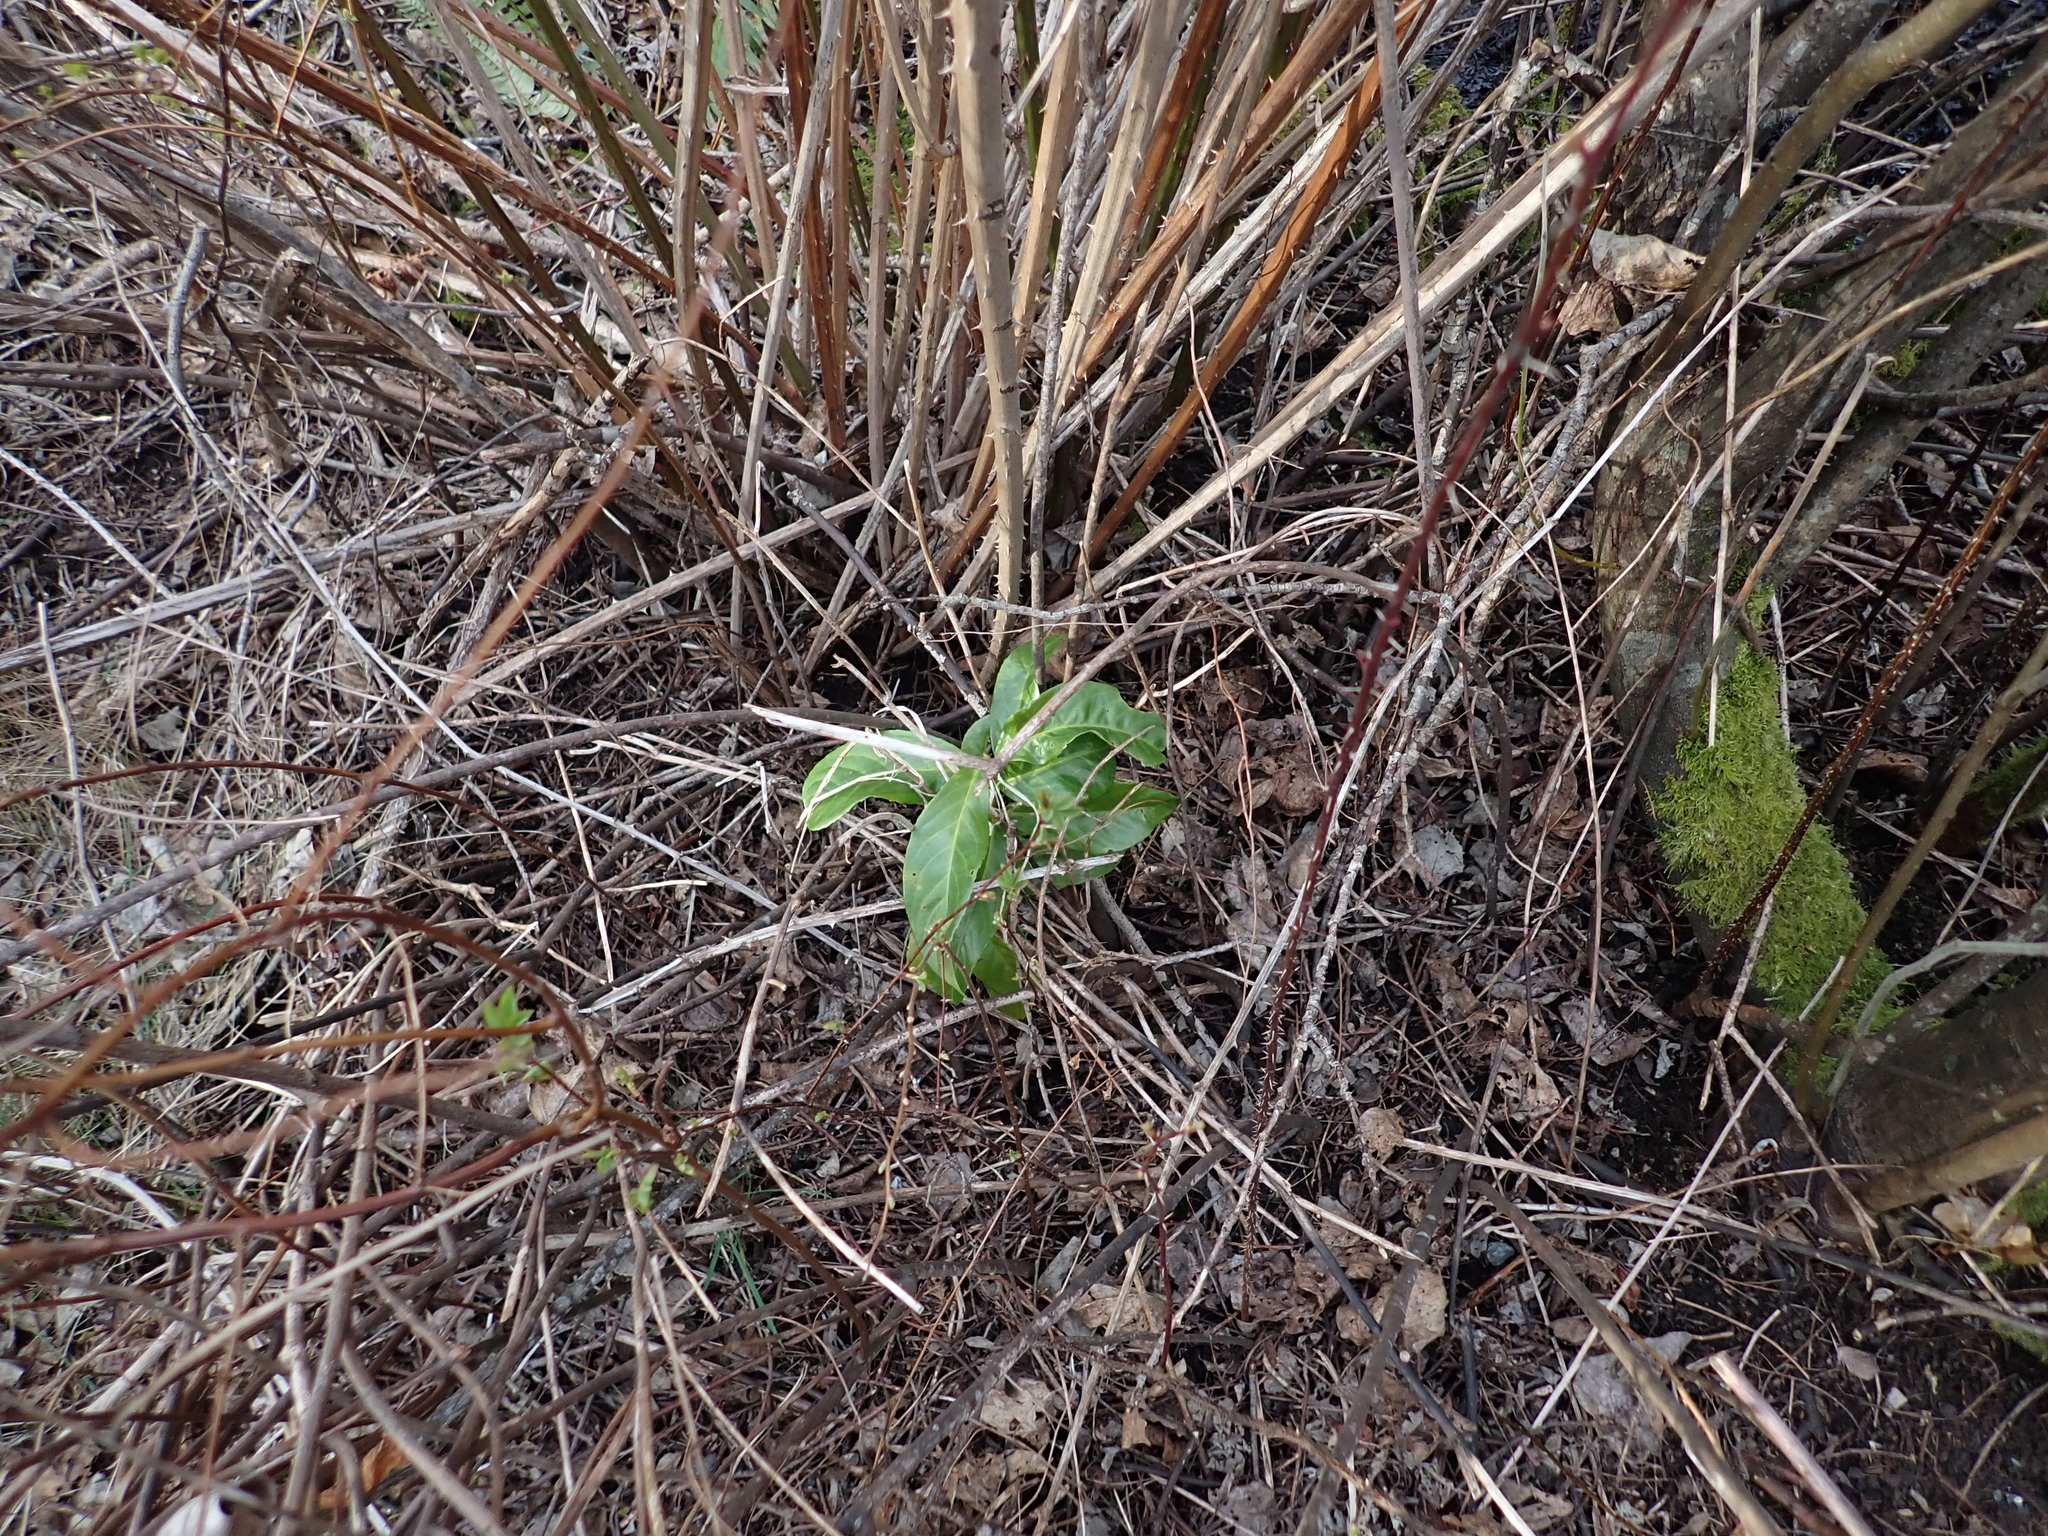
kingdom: Plantae
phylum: Tracheophyta
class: Magnoliopsida
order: Rosales
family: Rosaceae
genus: Prunus
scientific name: Prunus laurocerasus
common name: Cherry laurel
